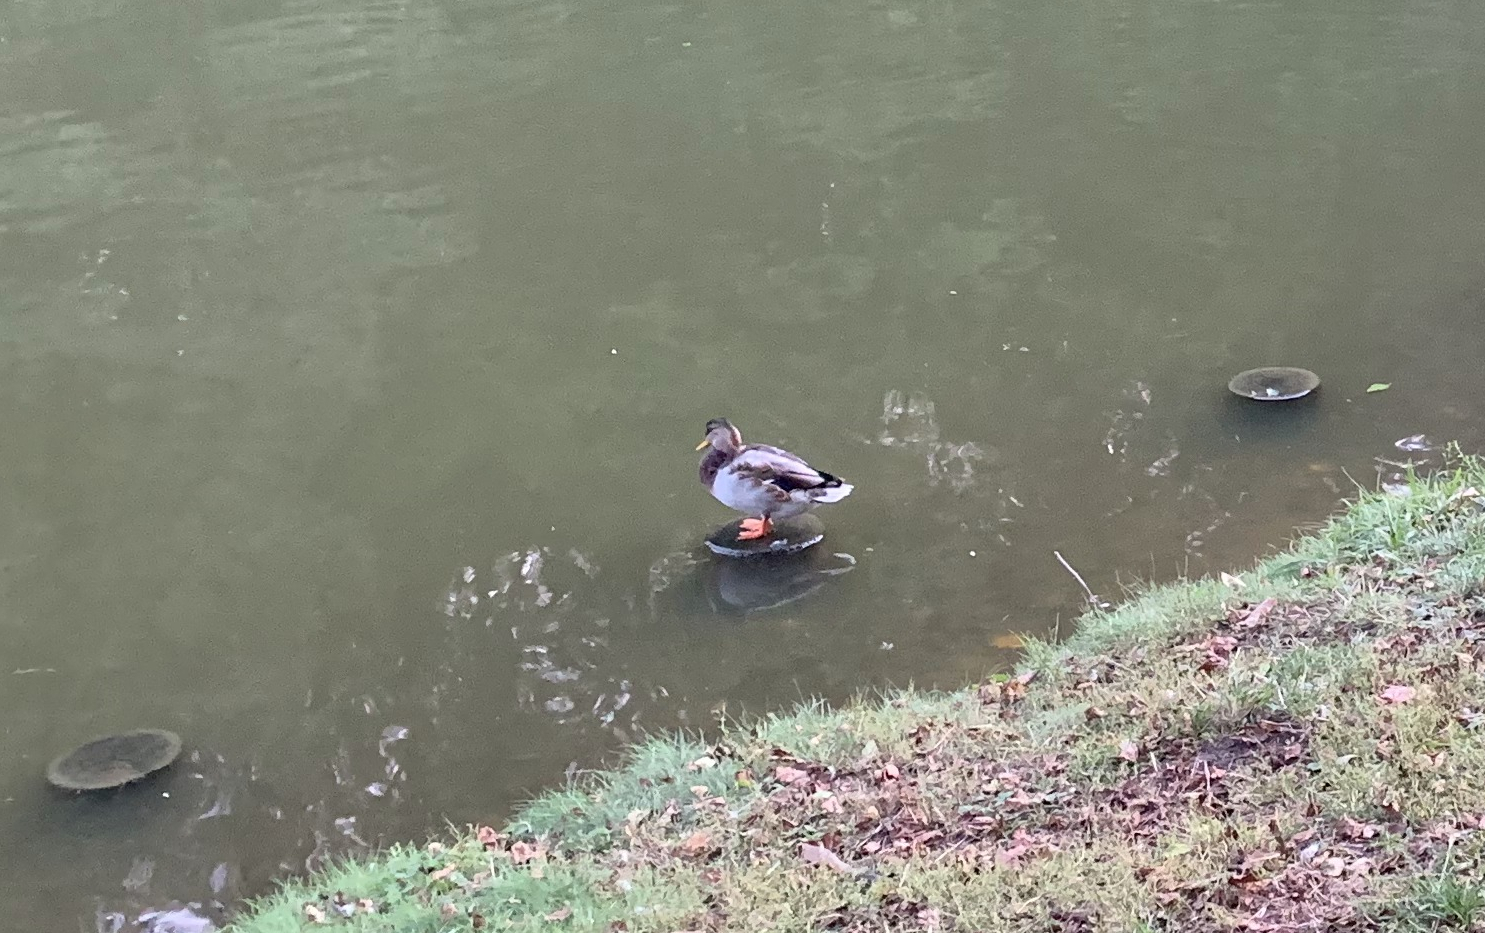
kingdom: Animalia
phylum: Chordata
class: Aves
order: Anseriformes
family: Anatidae
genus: Anas
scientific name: Anas platyrhynchos
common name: Mallard
